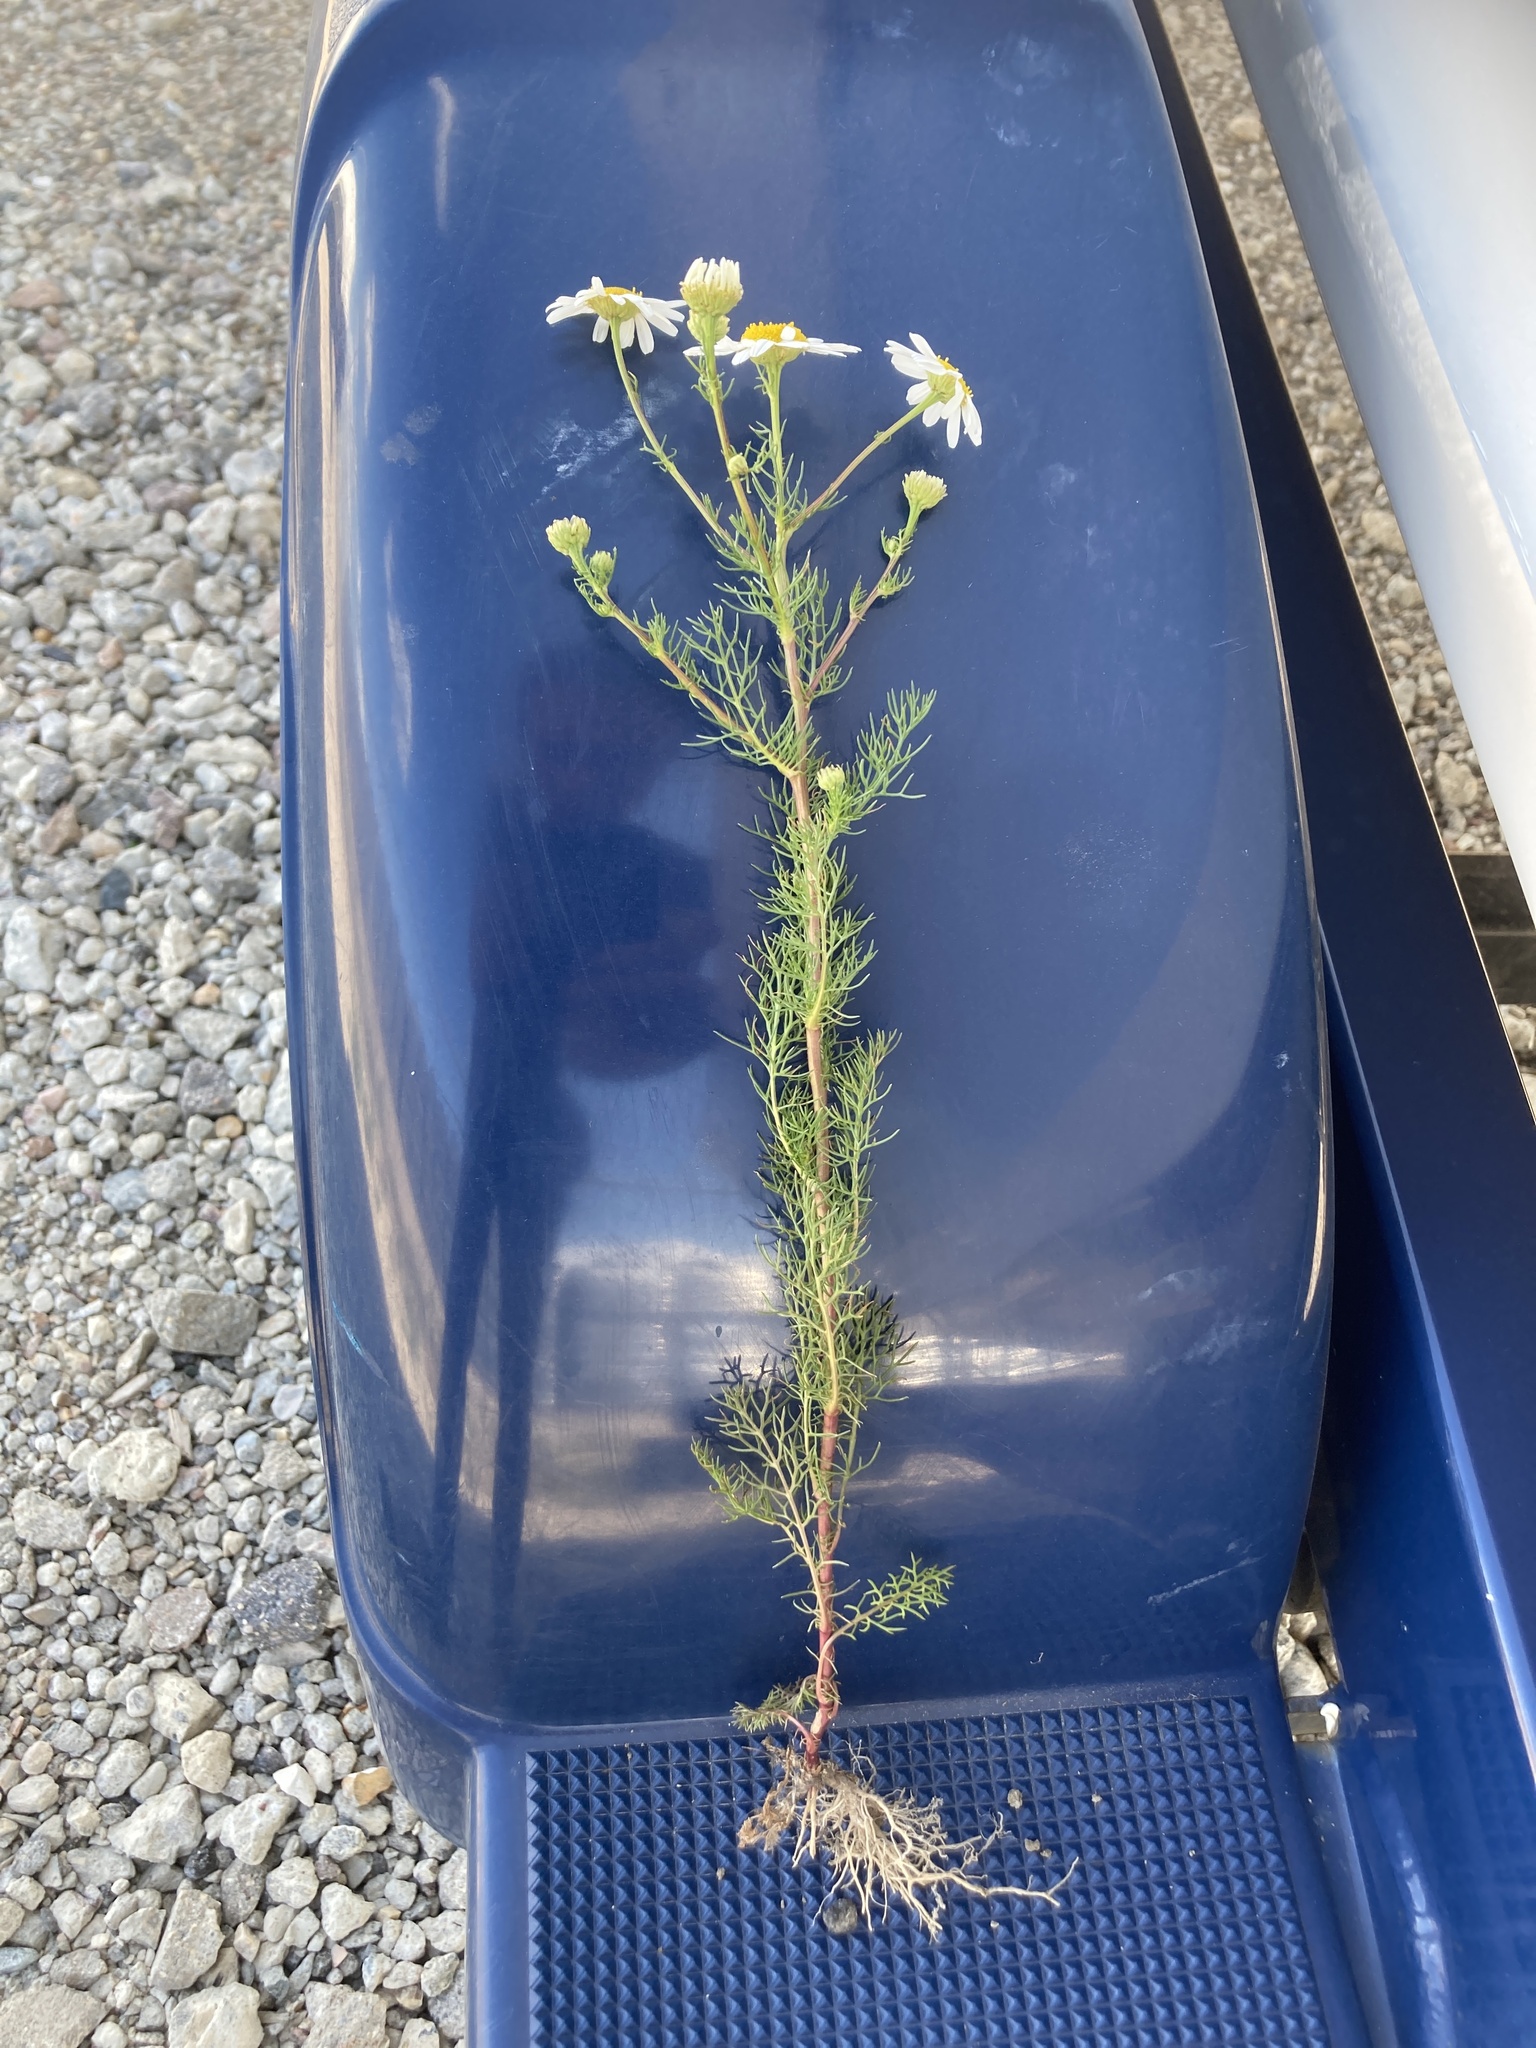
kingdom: Plantae
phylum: Tracheophyta
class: Magnoliopsida
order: Asterales
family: Asteraceae
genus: Tripleurospermum
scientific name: Tripleurospermum inodorum
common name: Scentless mayweed
